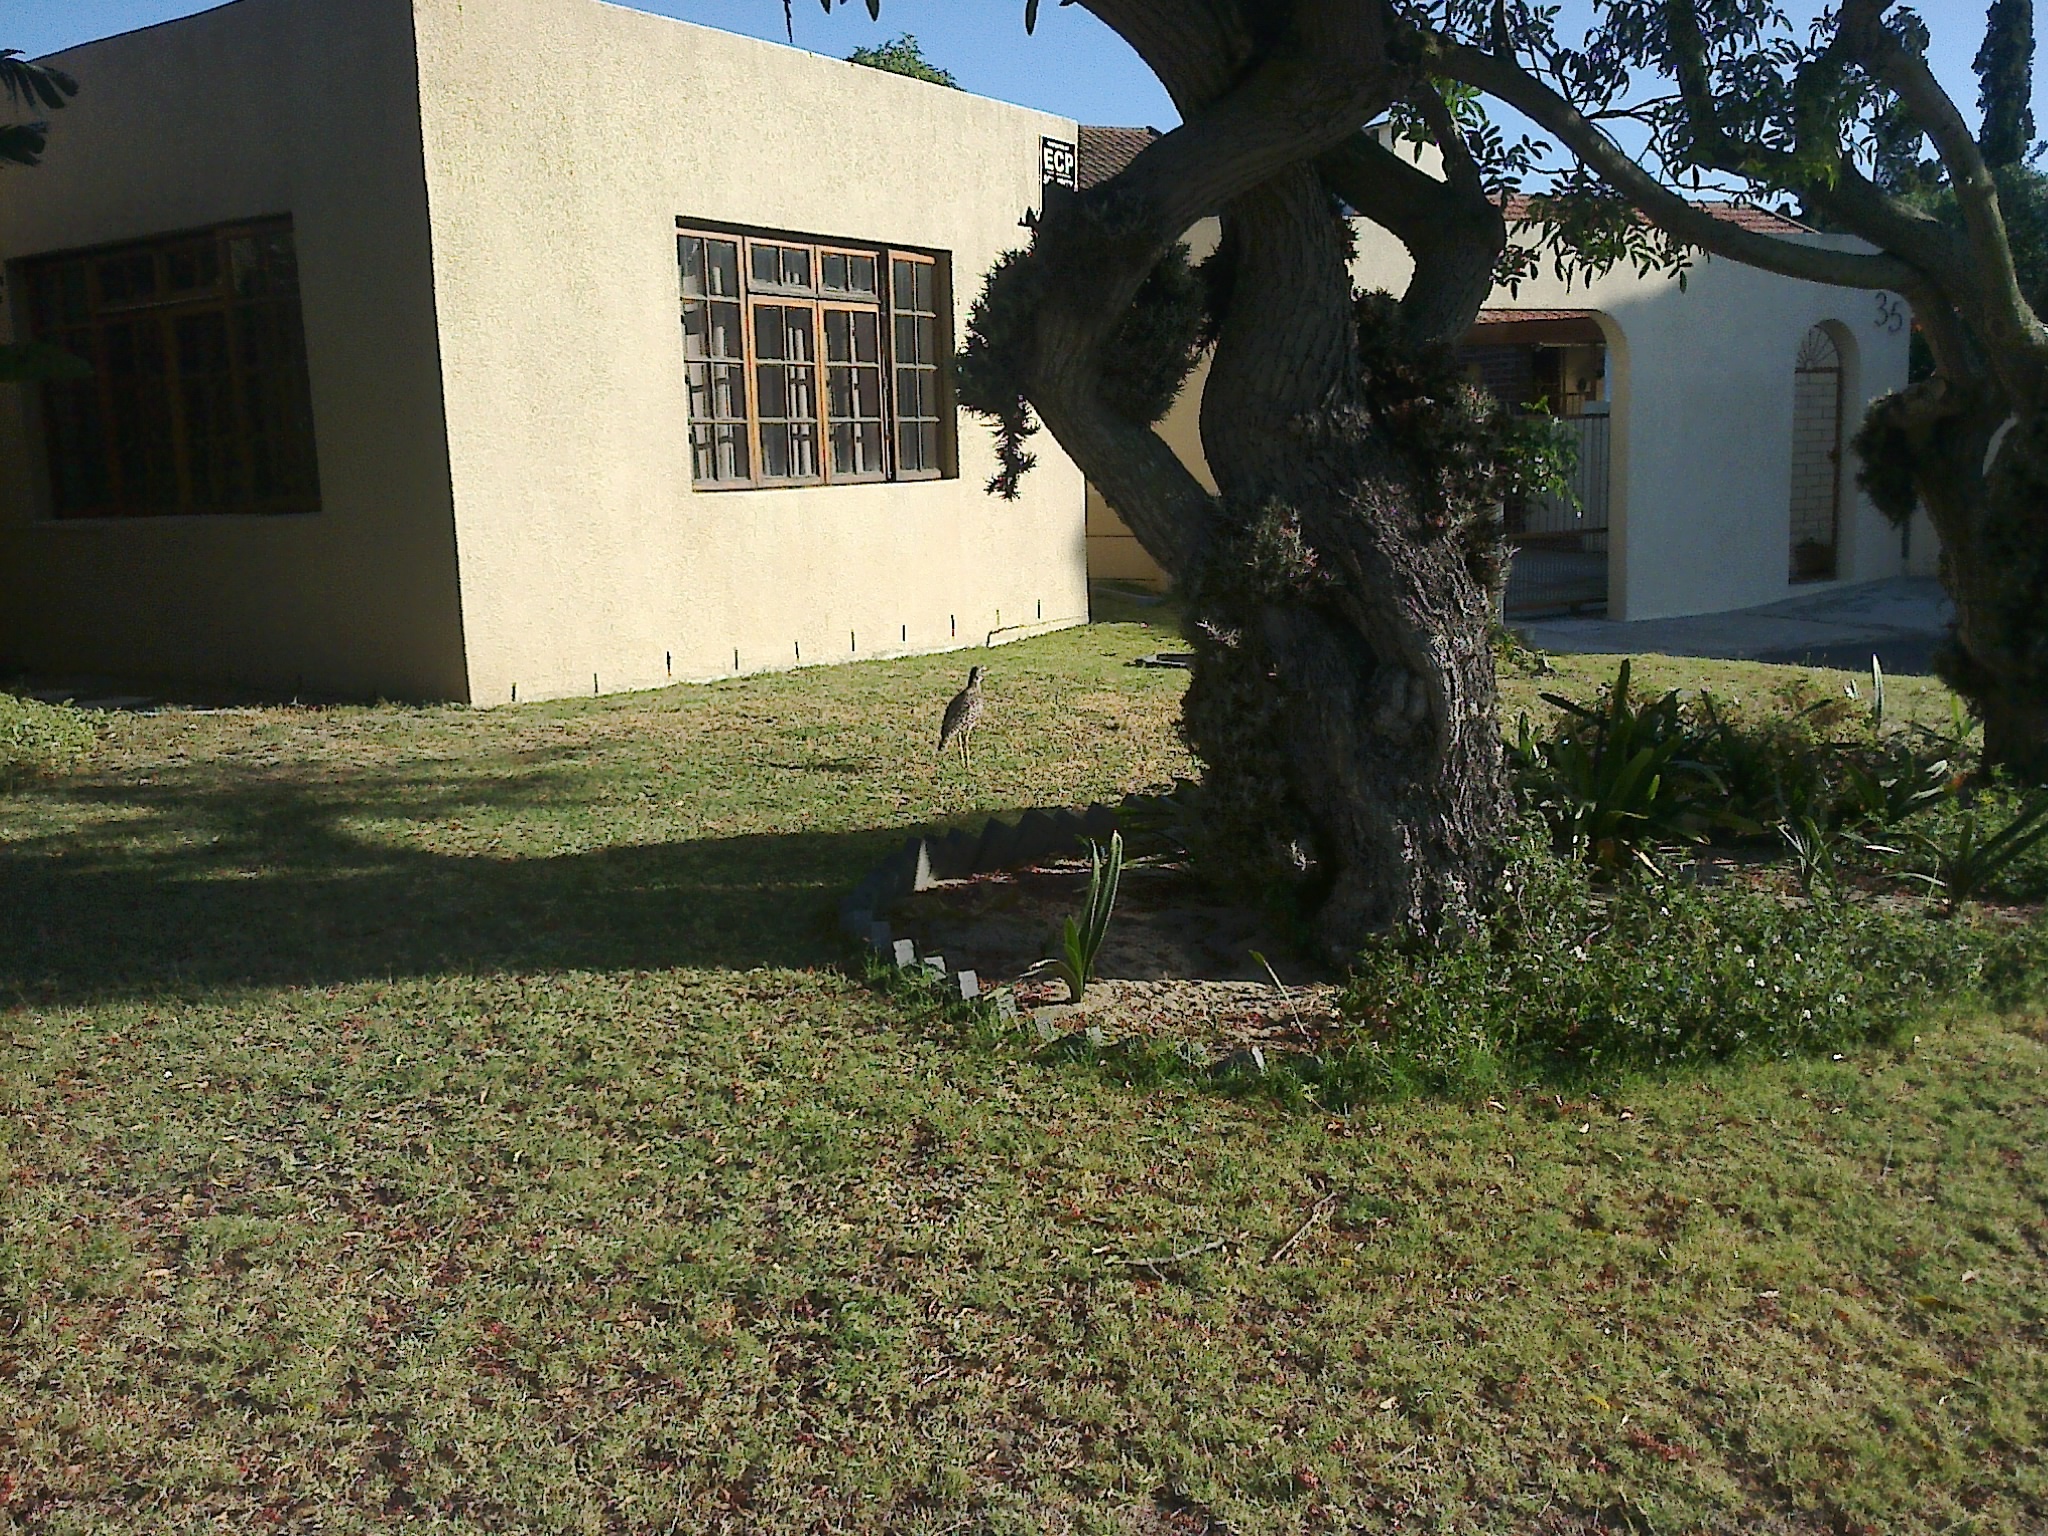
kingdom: Animalia
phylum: Chordata
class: Aves
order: Charadriiformes
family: Burhinidae
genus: Burhinus
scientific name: Burhinus capensis
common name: Spotted thick-knee
